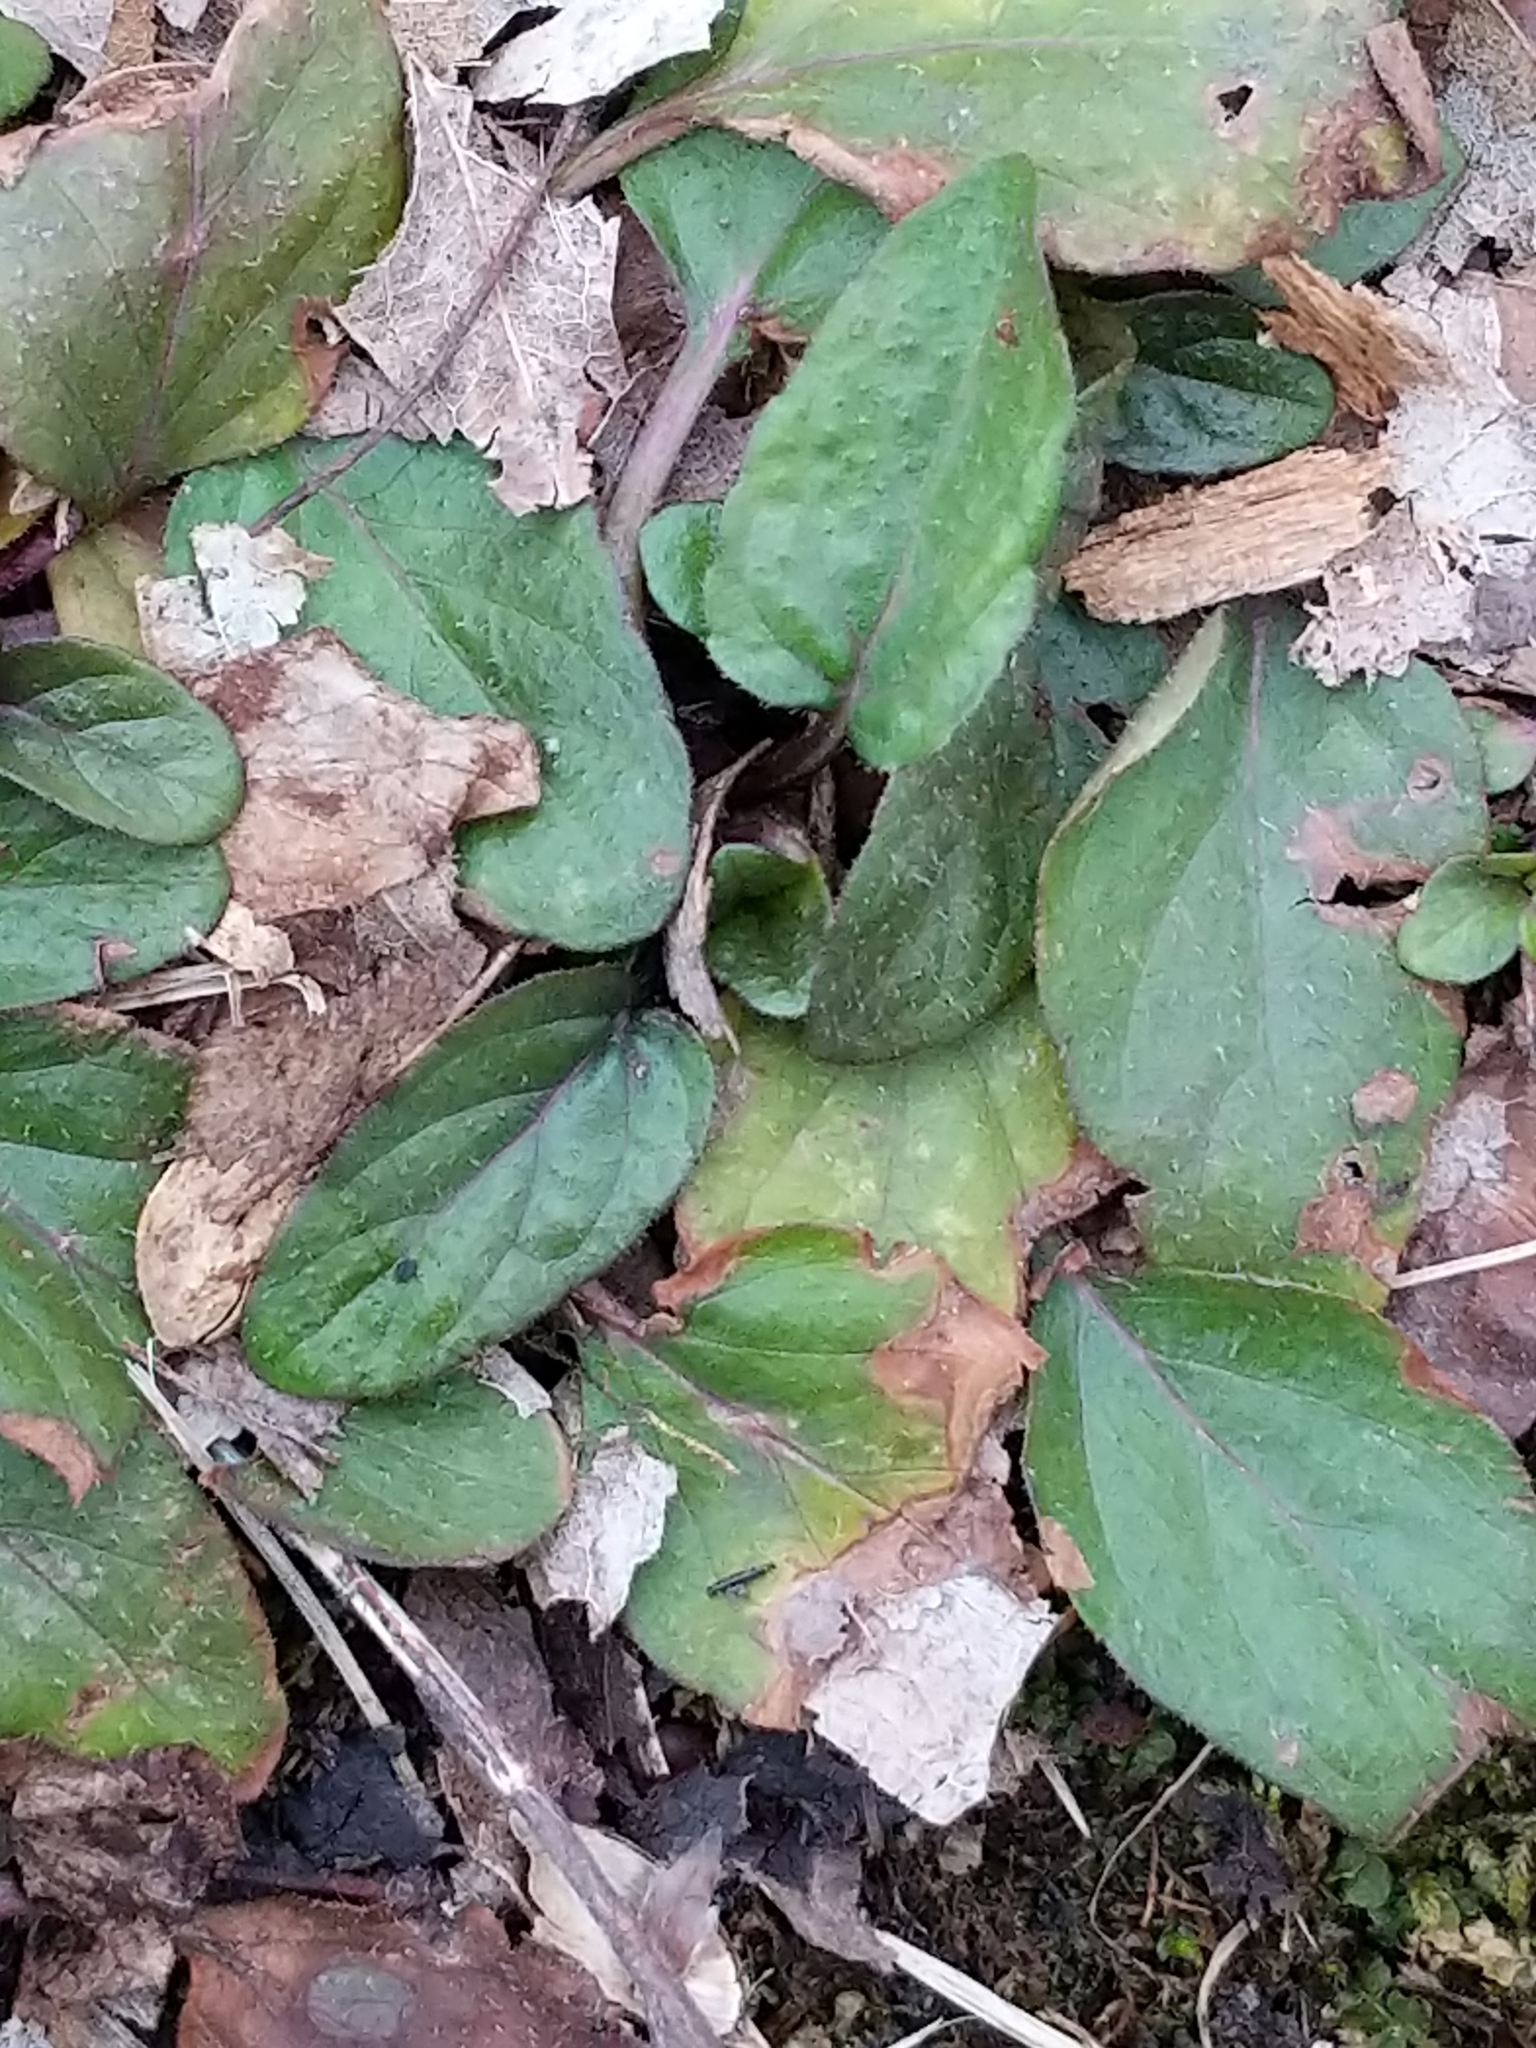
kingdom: Plantae
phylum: Tracheophyta
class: Magnoliopsida
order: Lamiales
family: Lamiaceae
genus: Prunella
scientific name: Prunella vulgaris
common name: Heal-all
